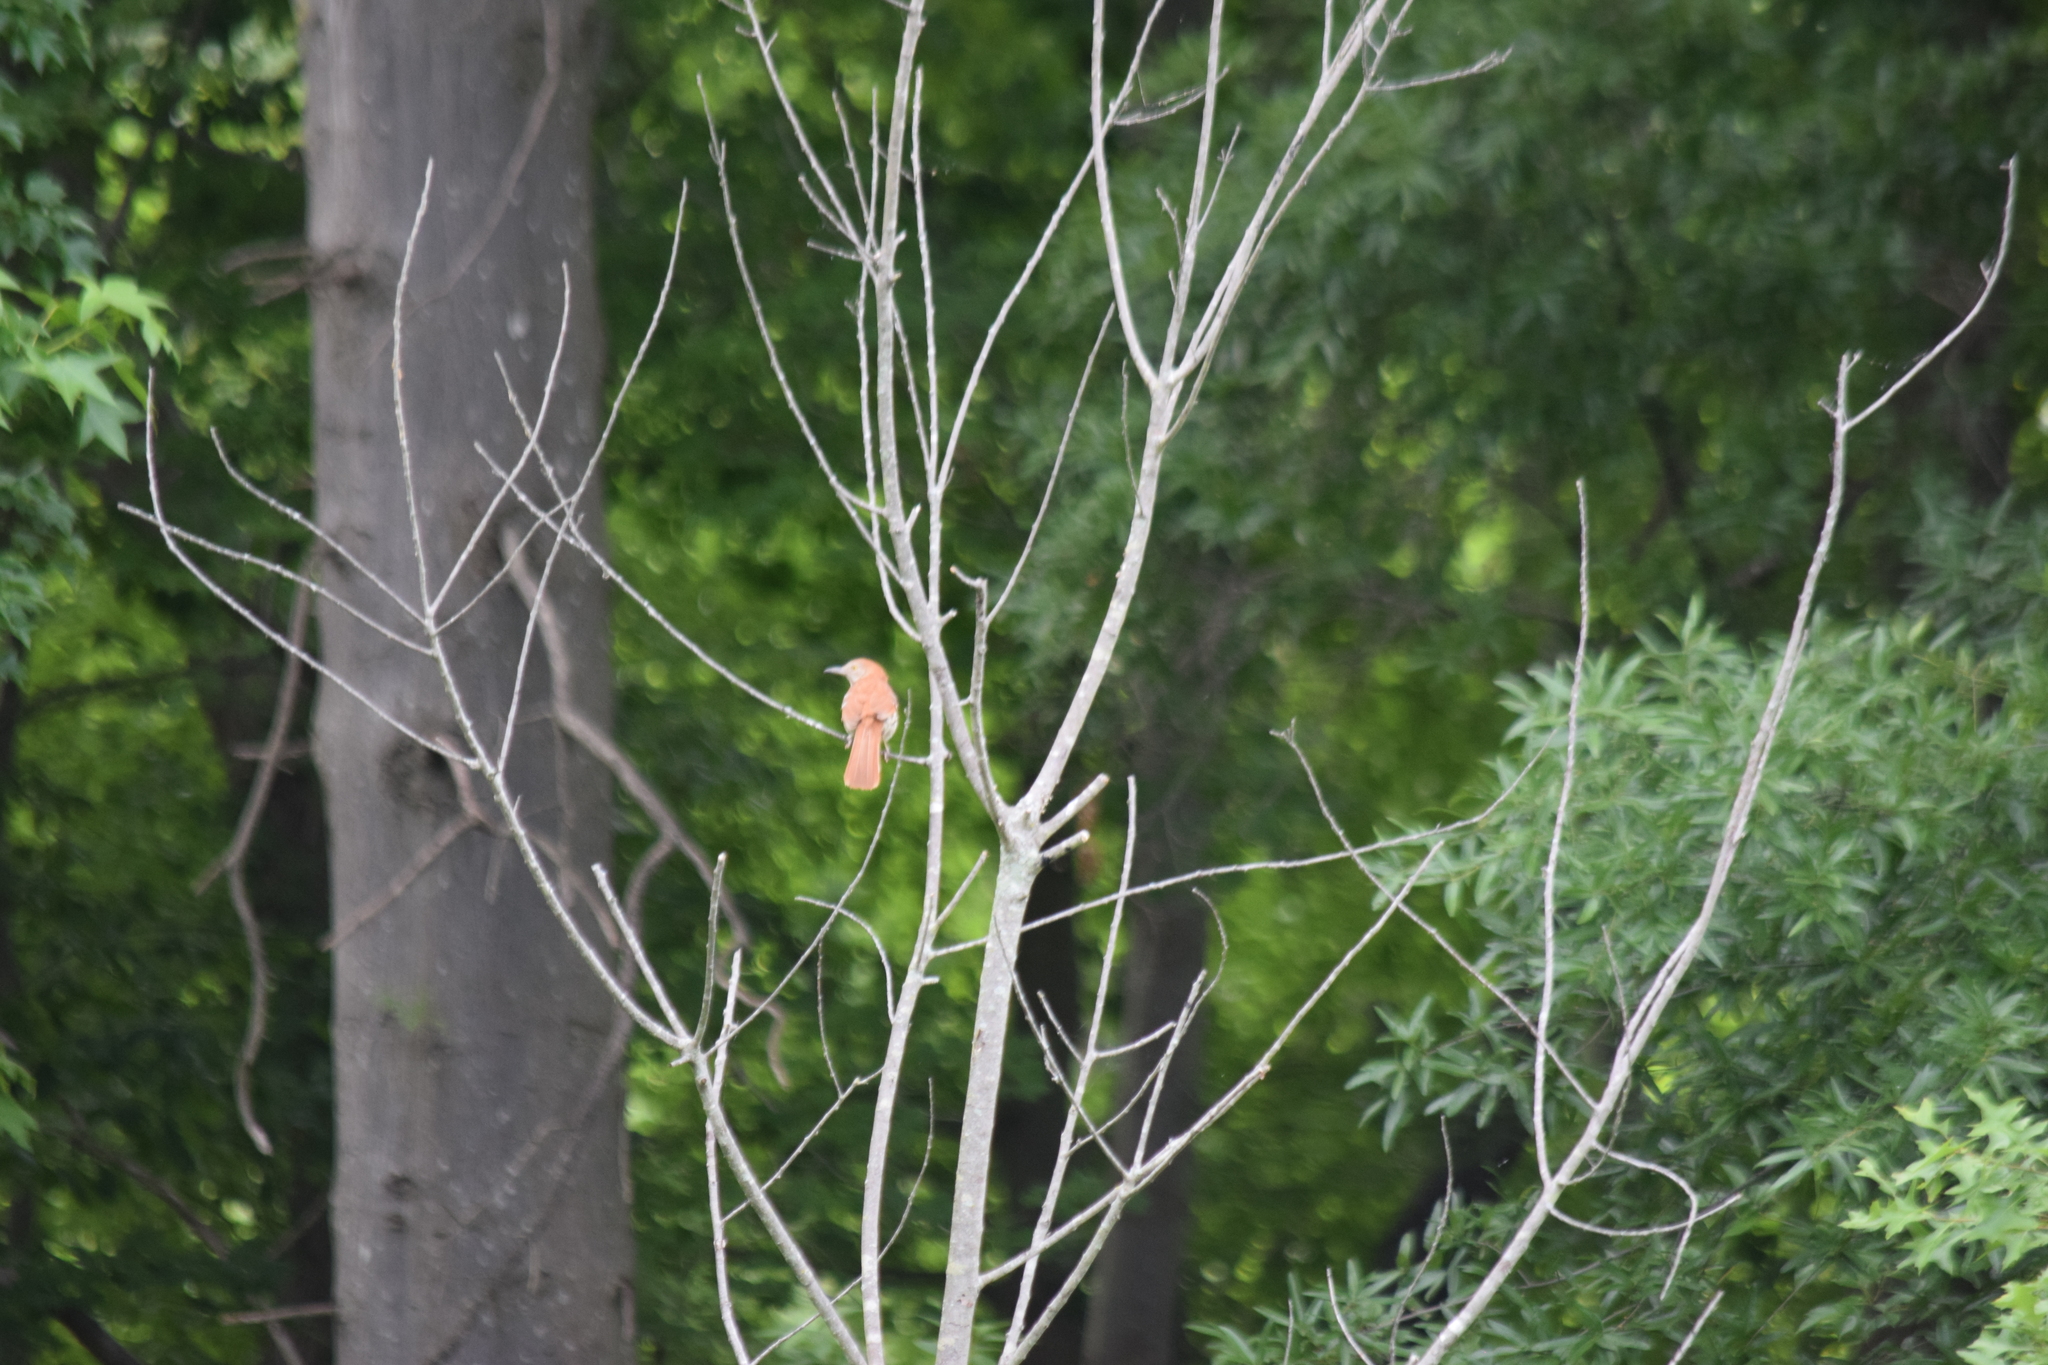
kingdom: Animalia
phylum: Chordata
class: Aves
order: Passeriformes
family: Mimidae
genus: Toxostoma
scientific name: Toxostoma rufum
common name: Brown thrasher
